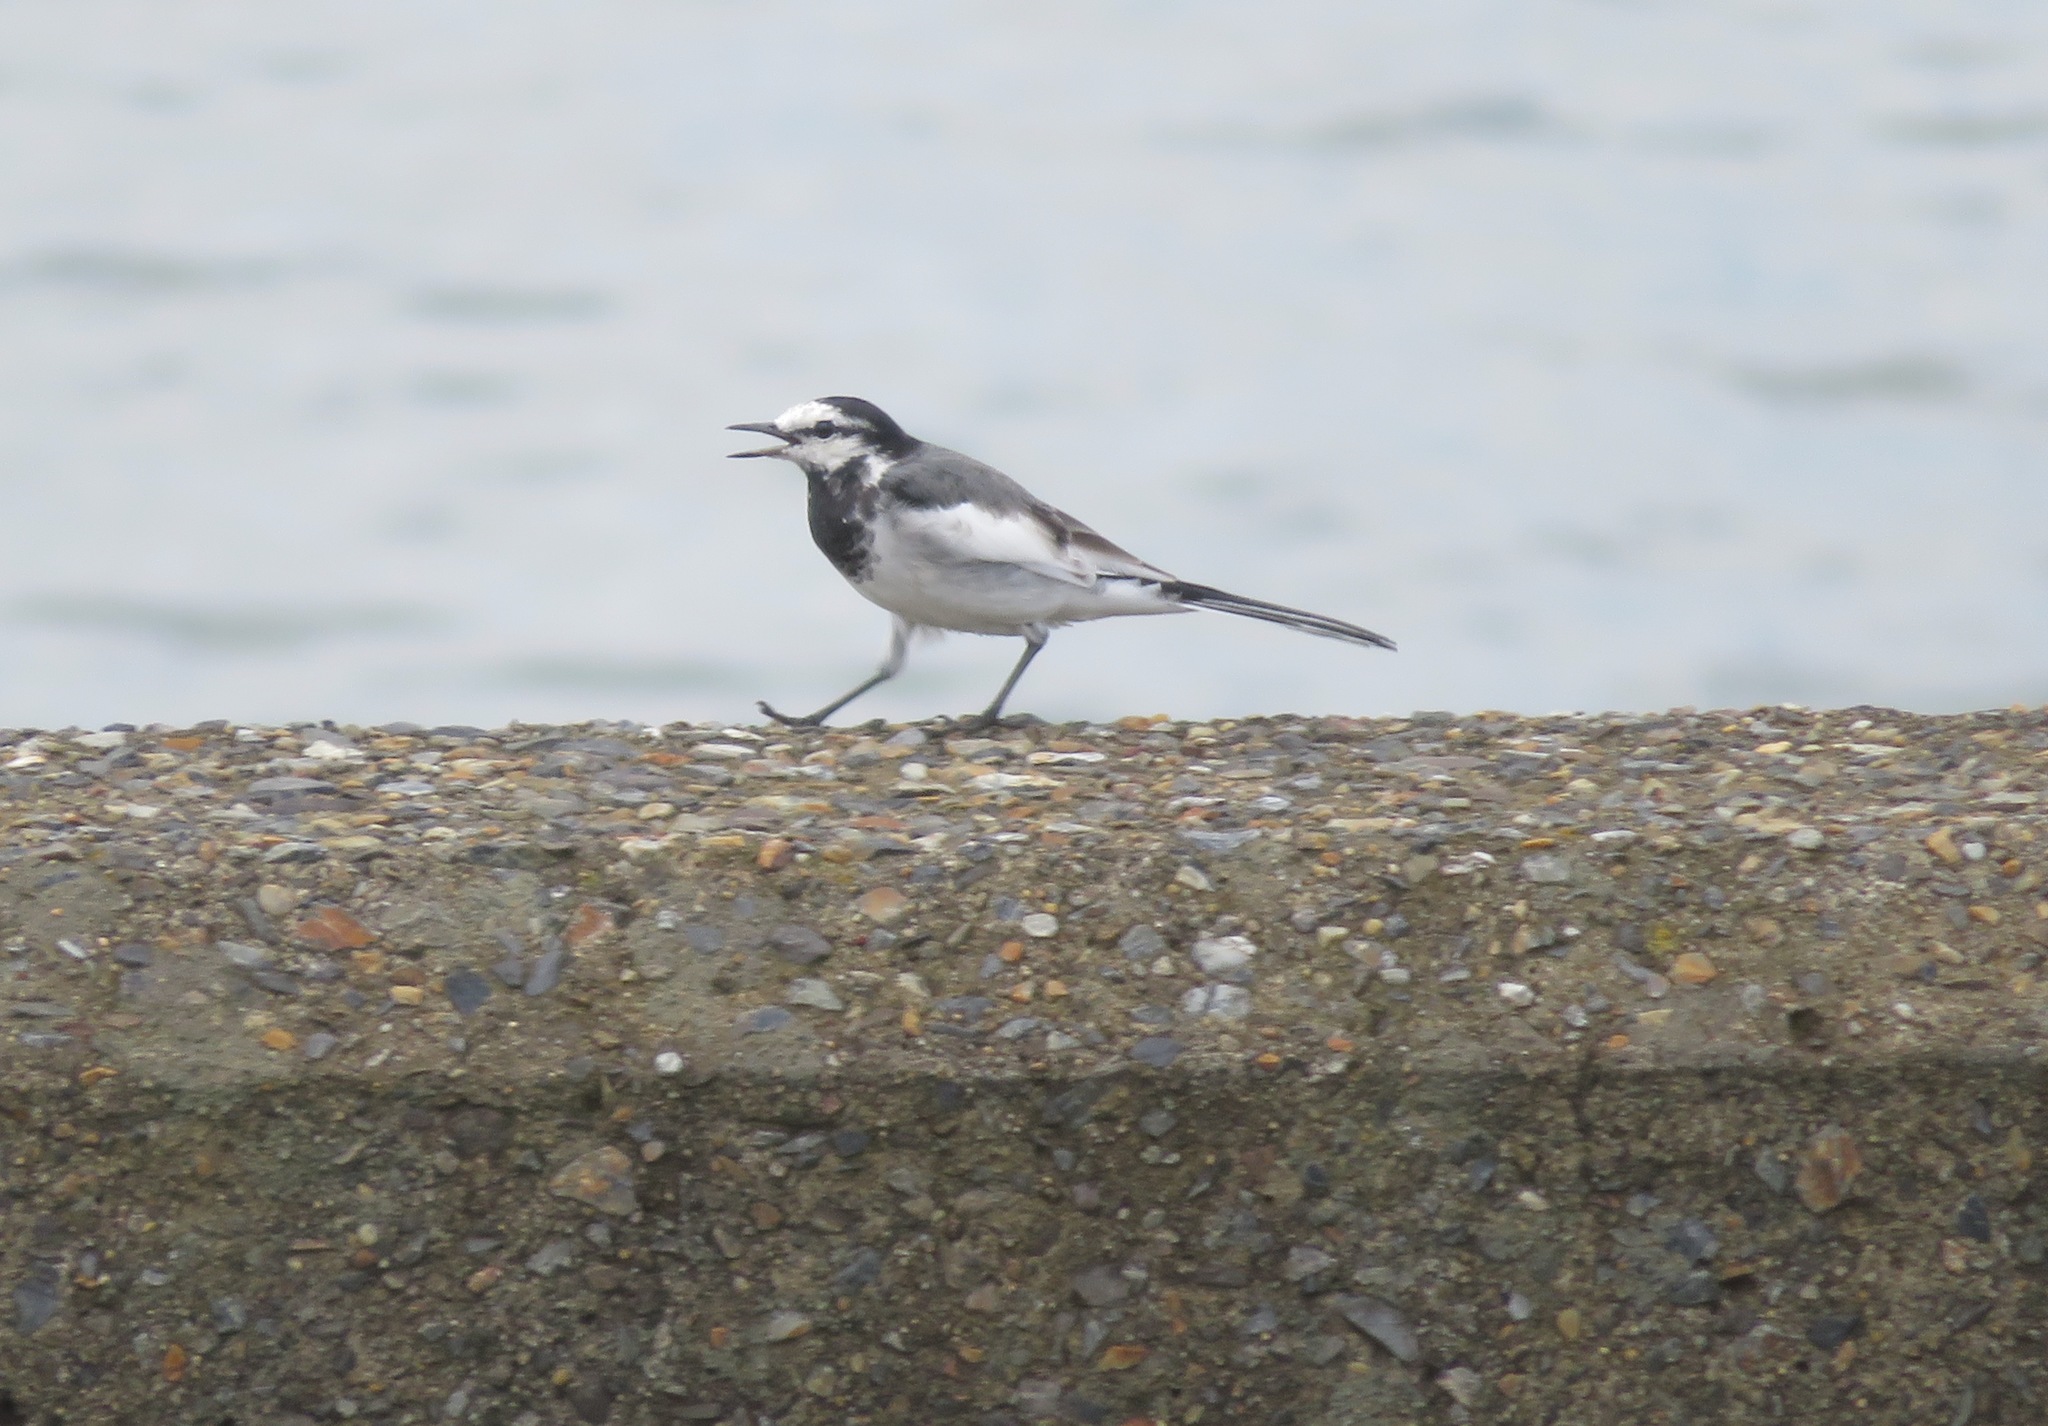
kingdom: Animalia
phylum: Chordata
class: Aves
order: Passeriformes
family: Motacillidae
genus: Motacilla
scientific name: Motacilla alba
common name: White wagtail
